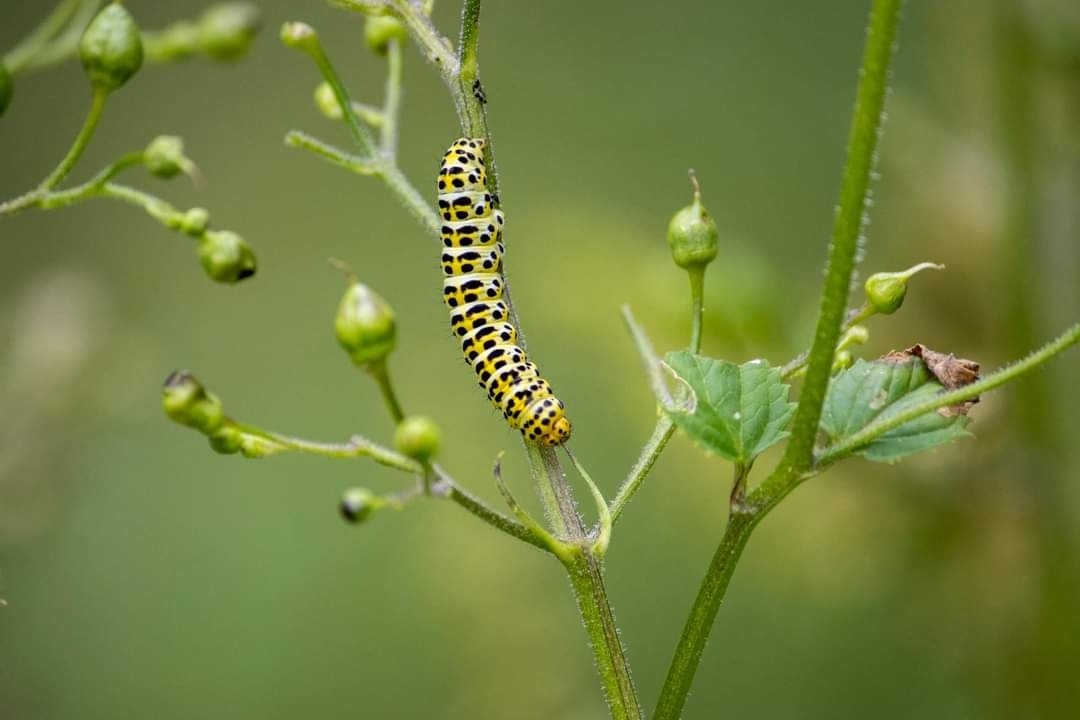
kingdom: Animalia
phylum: Arthropoda
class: Insecta
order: Lepidoptera
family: Noctuidae
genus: Shargacucullia
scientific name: Shargacucullia scrophulariae
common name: Water betony
